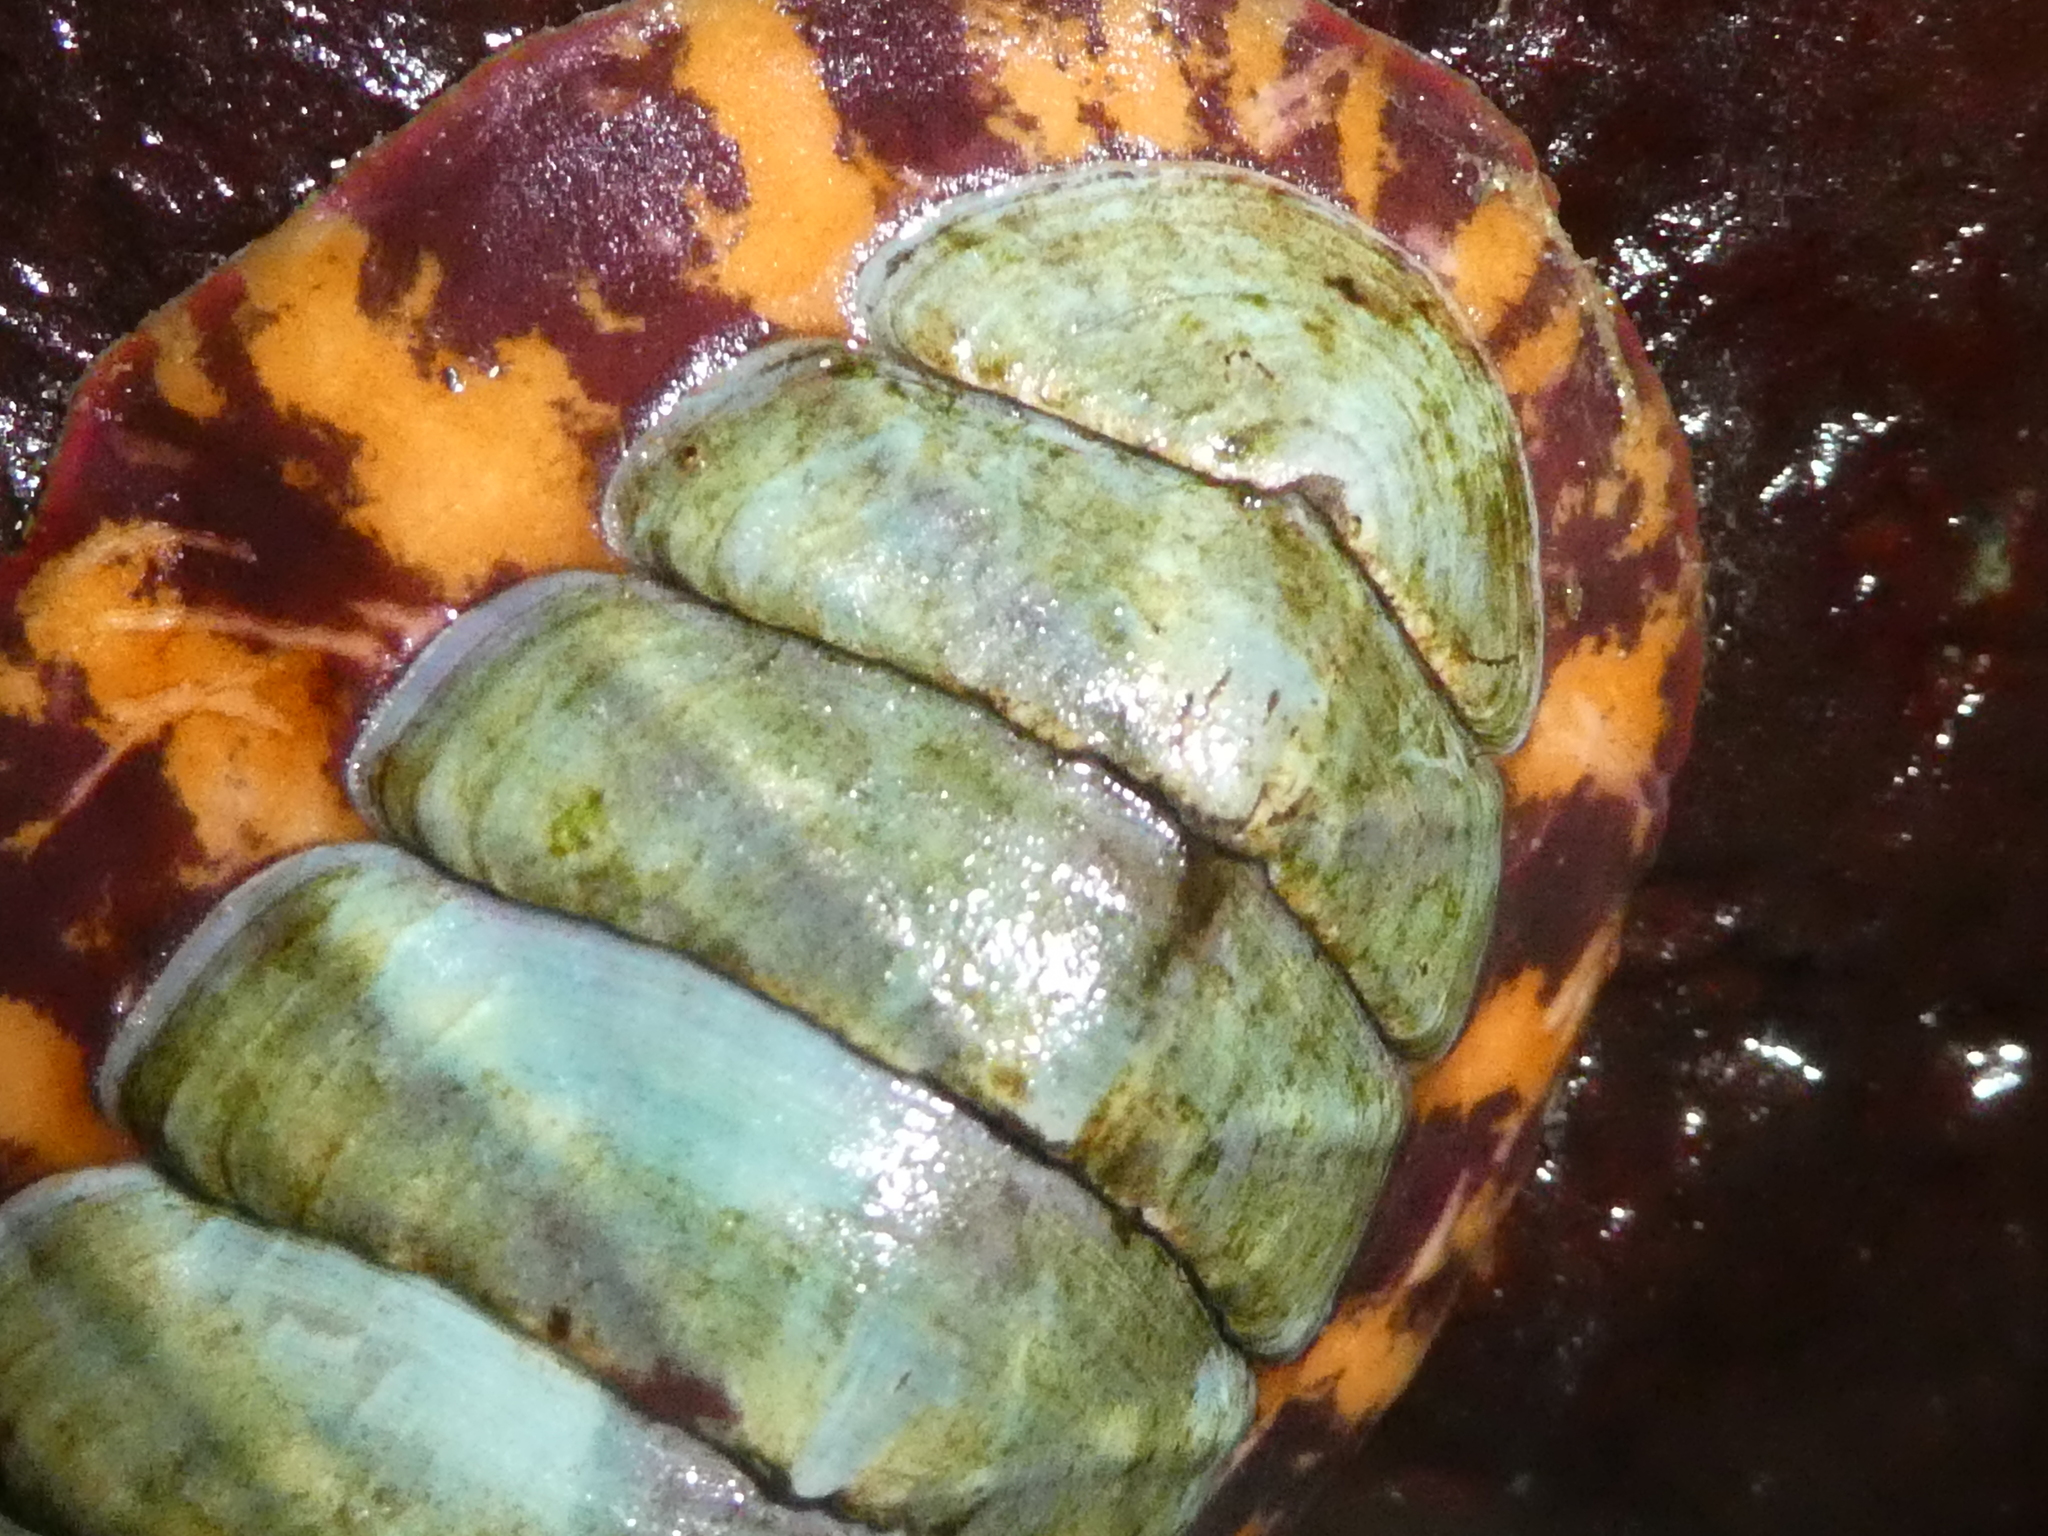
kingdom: Animalia
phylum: Mollusca
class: Polyplacophora
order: Chitonida
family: Tonicellidae
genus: Tonicella
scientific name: Tonicella lineata
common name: Lined chiton
